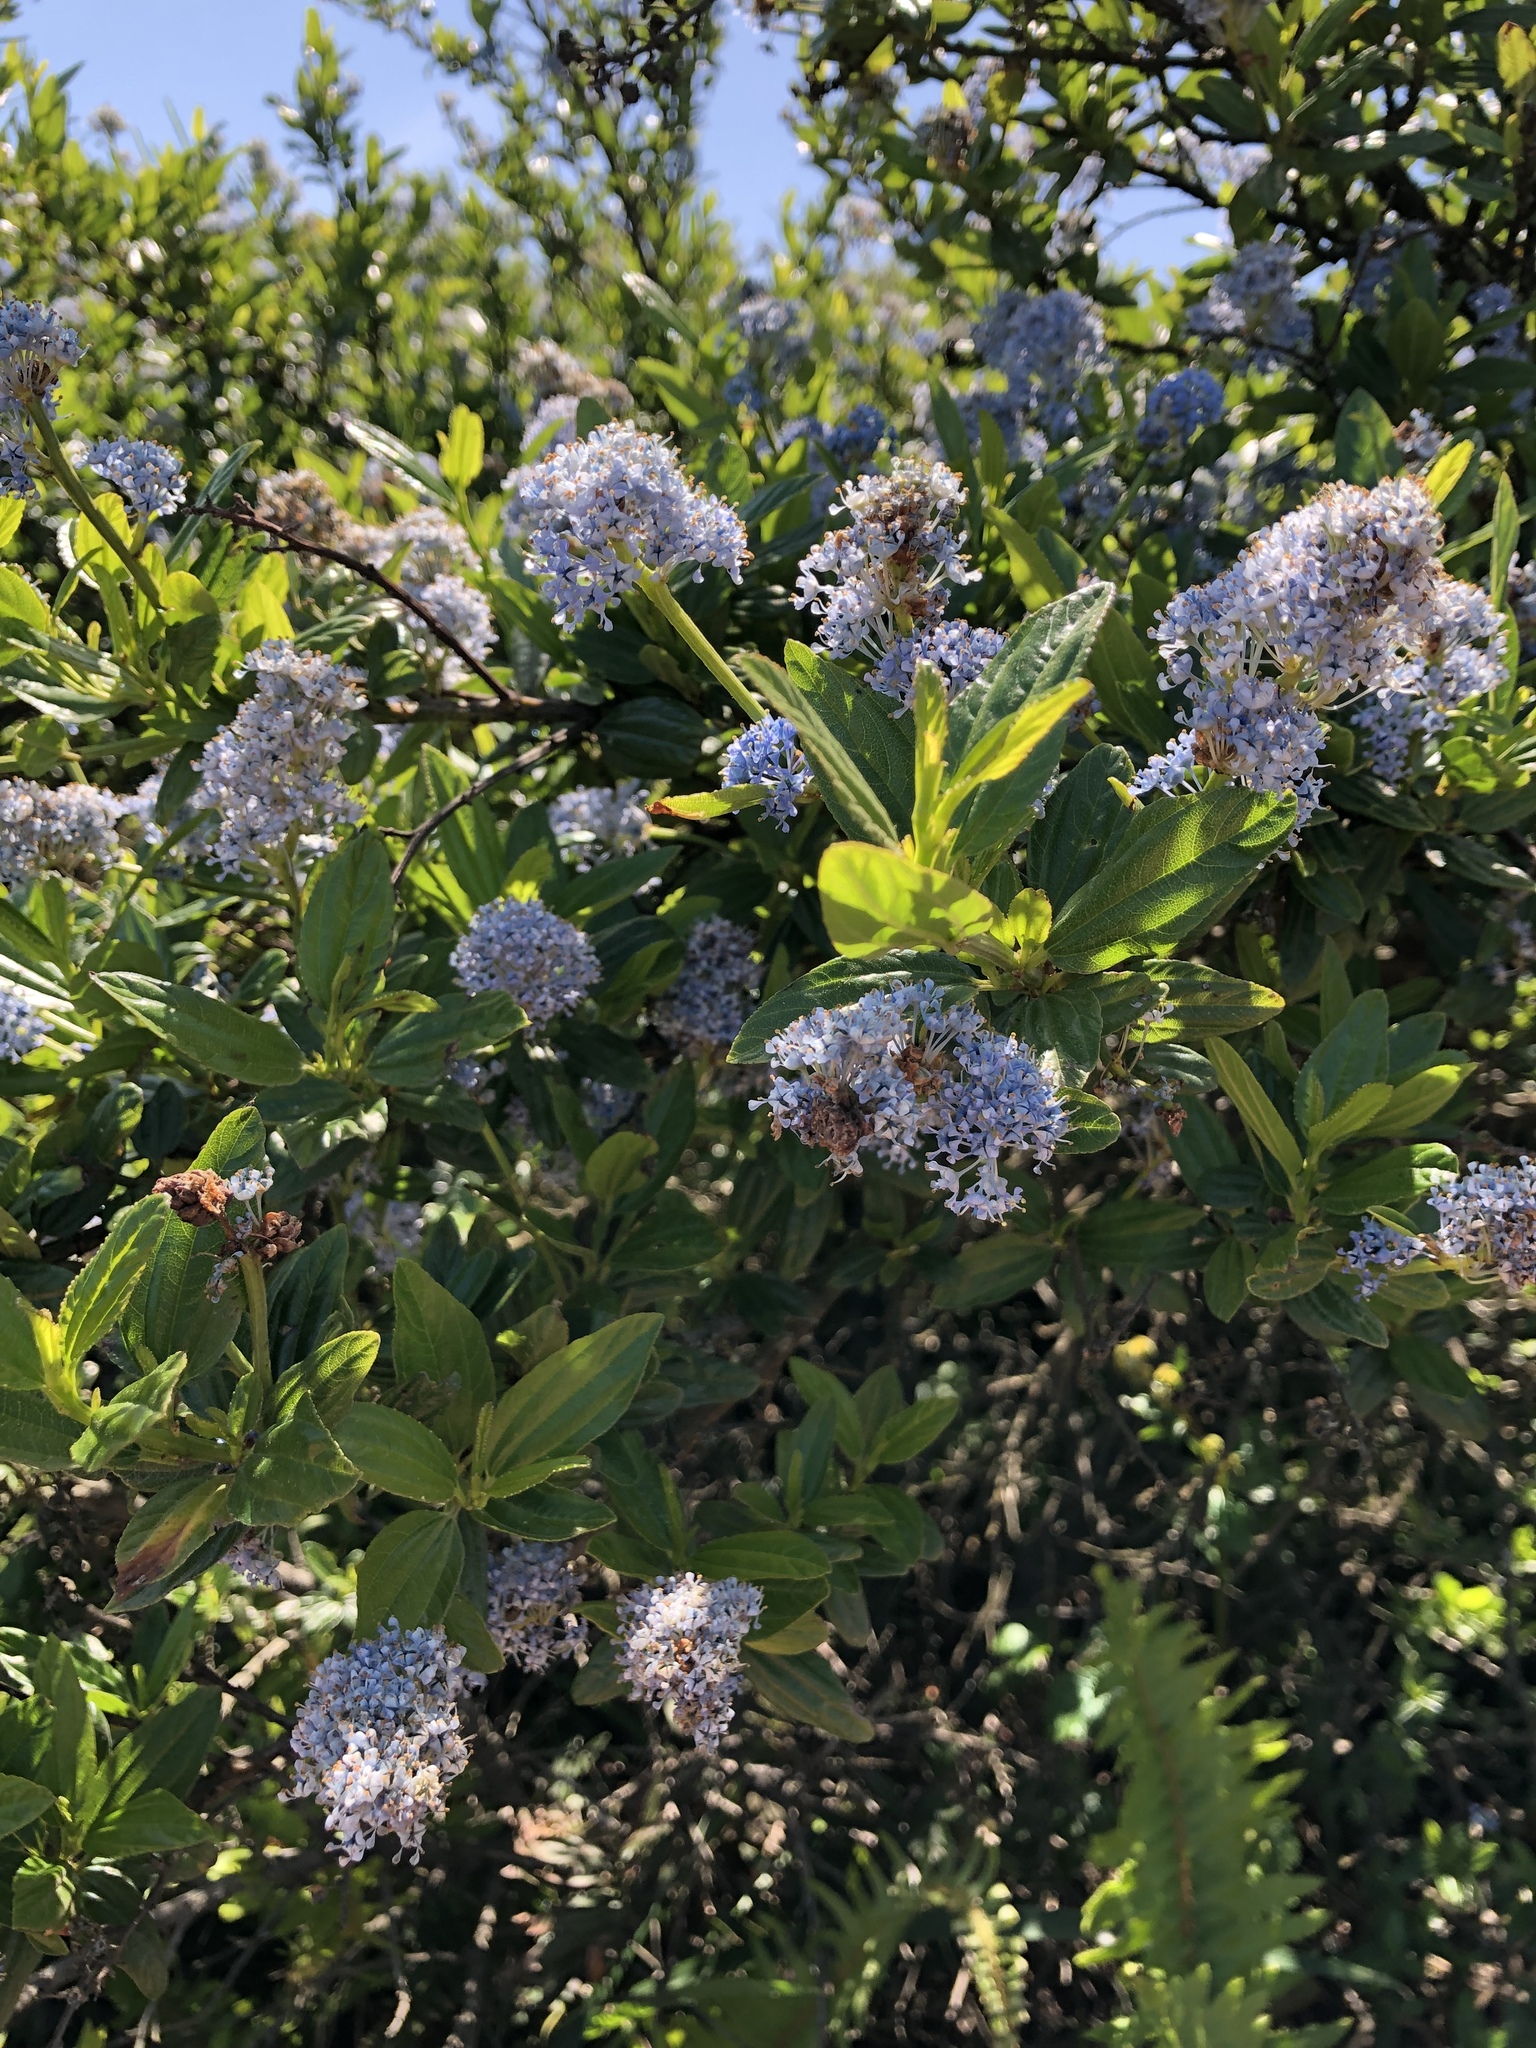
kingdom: Plantae
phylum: Tracheophyta
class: Magnoliopsida
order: Rosales
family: Rhamnaceae
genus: Ceanothus
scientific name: Ceanothus thyrsiflorus
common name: California-lilac
